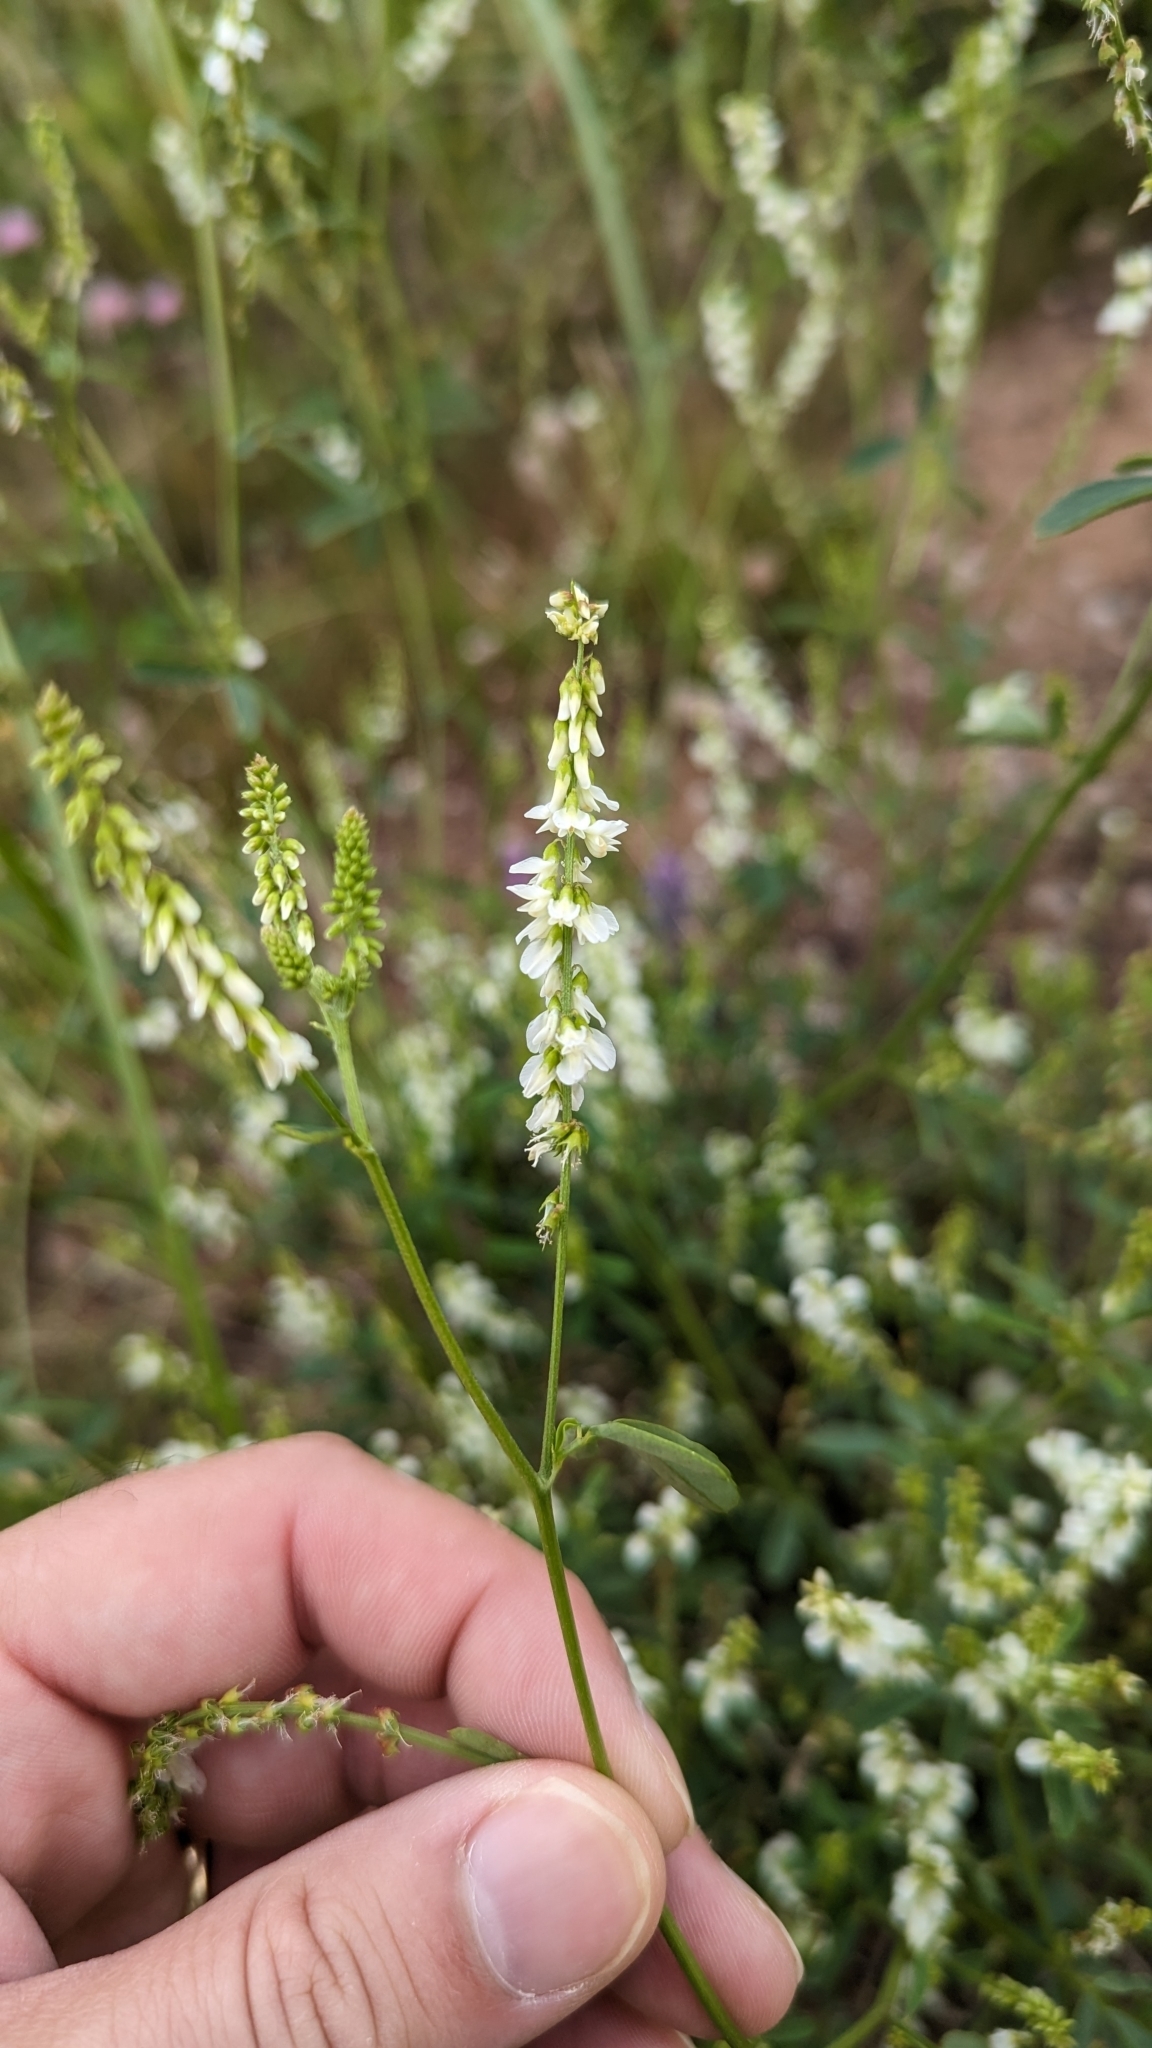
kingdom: Plantae
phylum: Tracheophyta
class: Magnoliopsida
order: Fabales
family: Fabaceae
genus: Melilotus
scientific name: Melilotus albus
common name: White melilot
